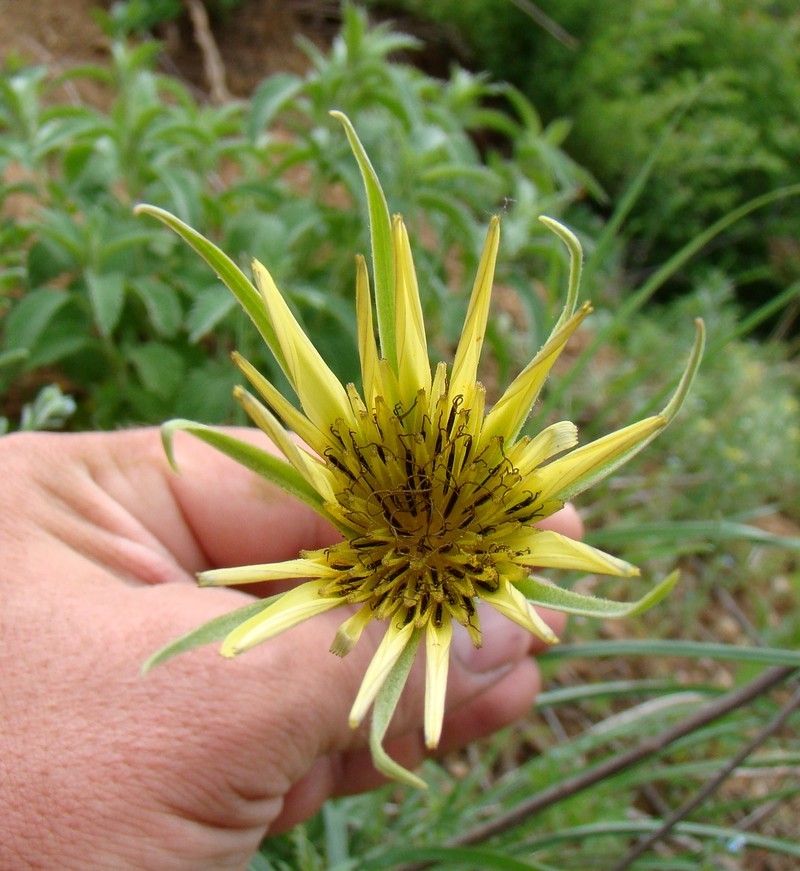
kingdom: Plantae
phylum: Tracheophyta
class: Magnoliopsida
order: Asterales
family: Asteraceae
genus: Tragopogon
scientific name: Tragopogon dubius
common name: Yellow salsify
